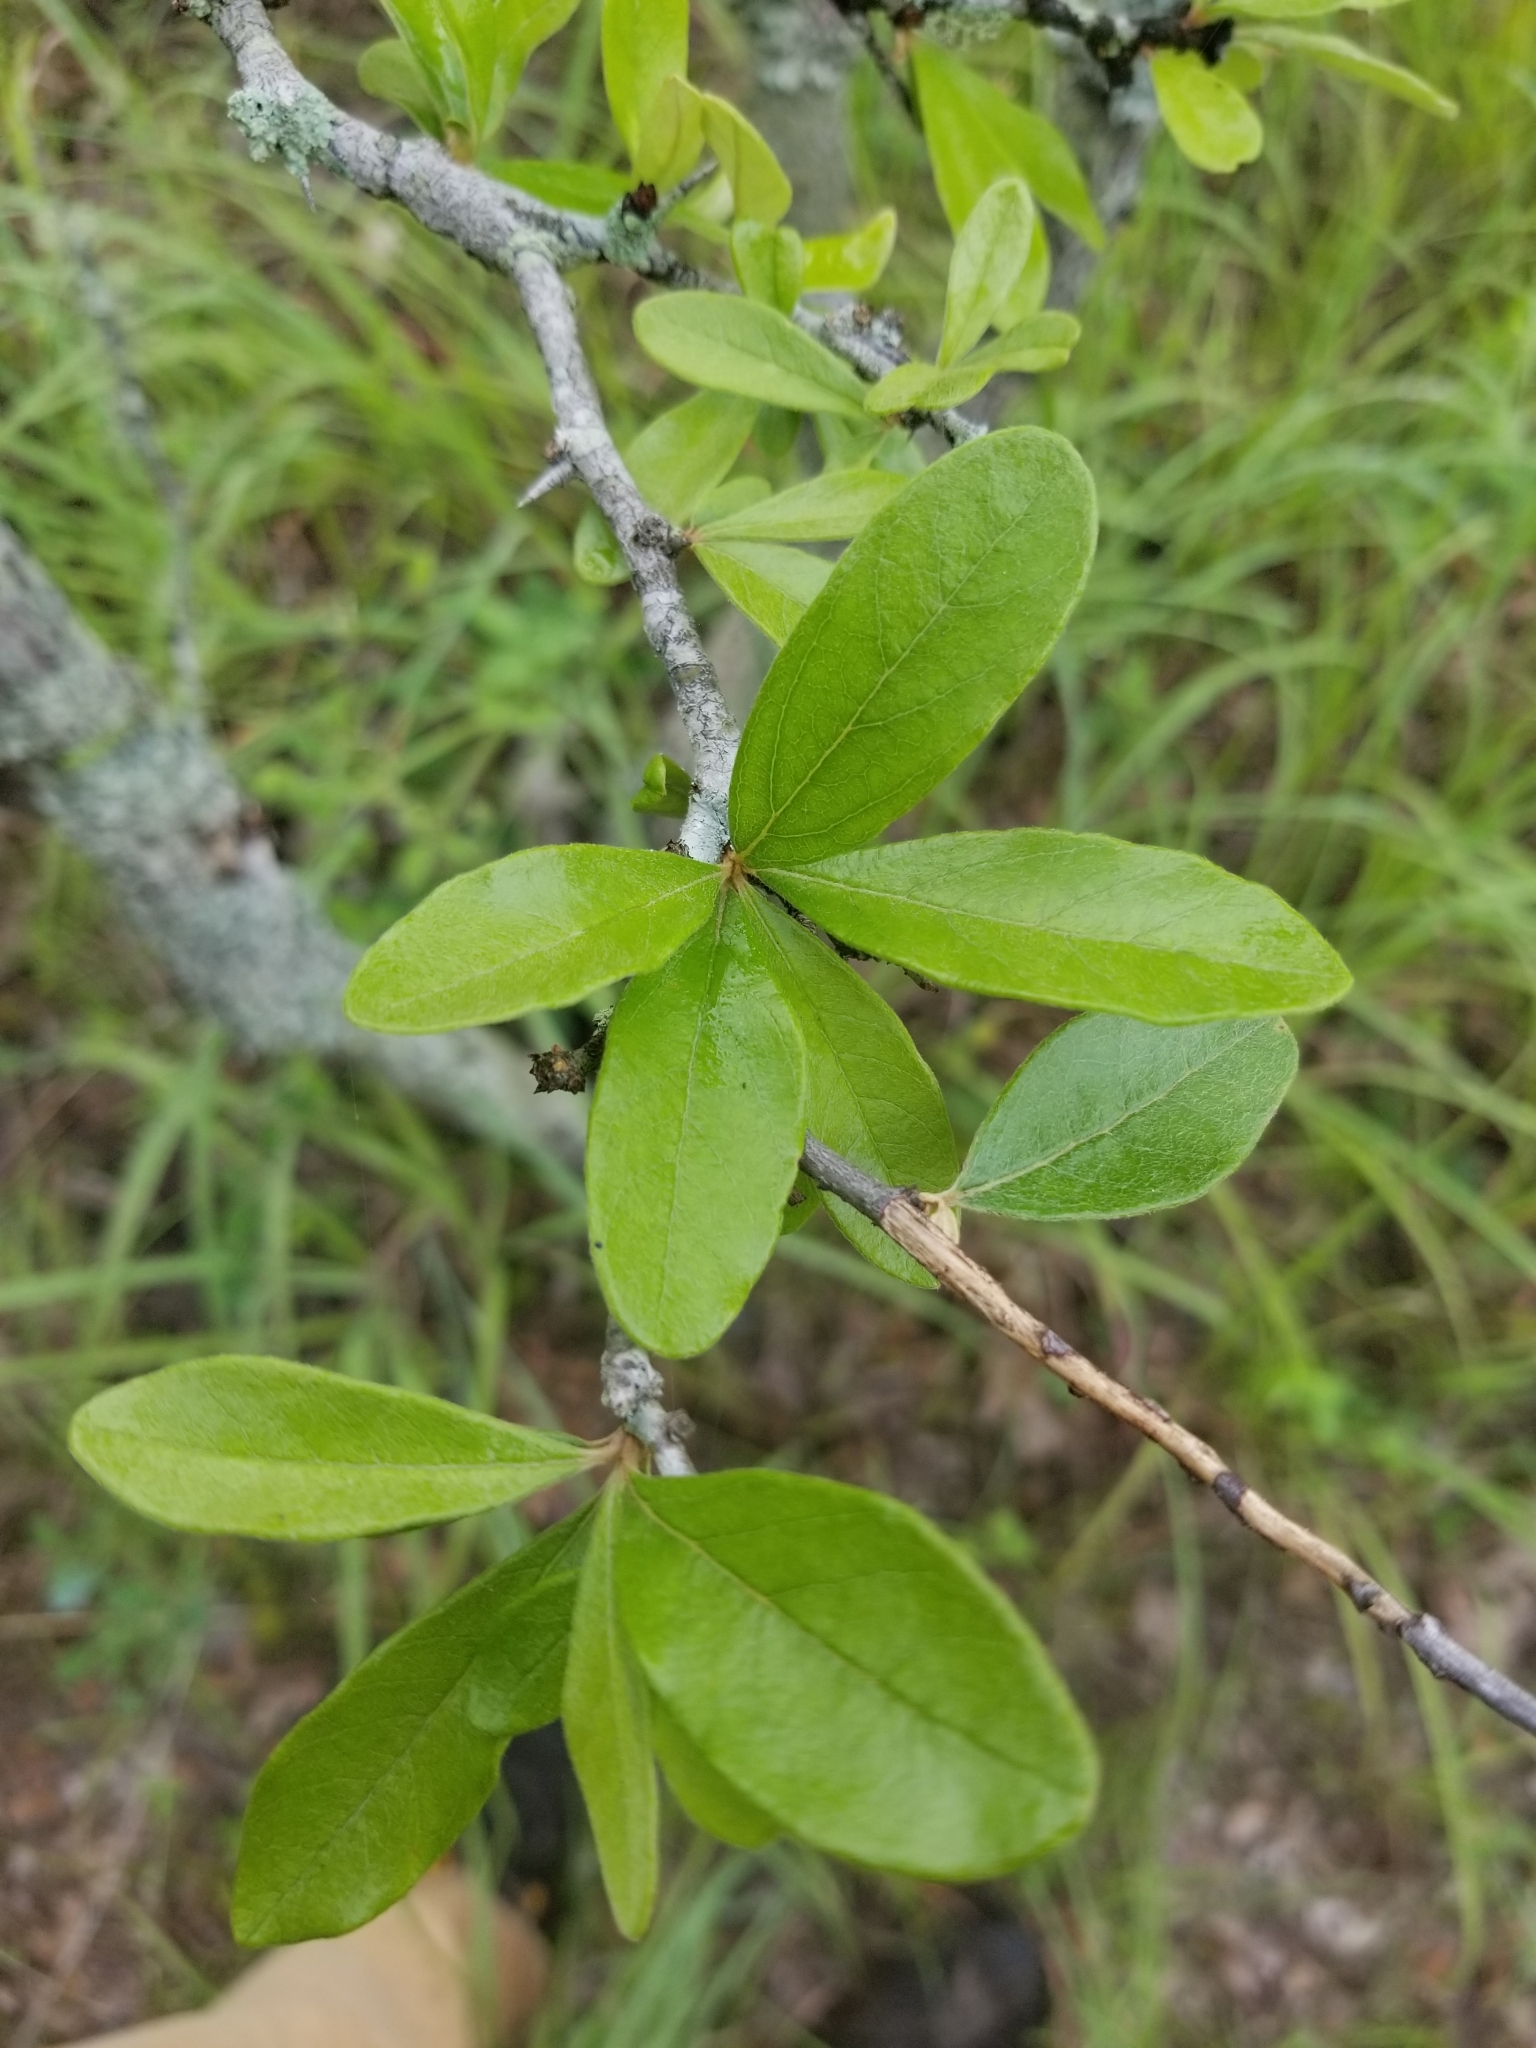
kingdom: Plantae
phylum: Tracheophyta
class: Magnoliopsida
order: Ericales
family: Sapotaceae
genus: Sideroxylon
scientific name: Sideroxylon lanuginosum
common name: Chittamwood
